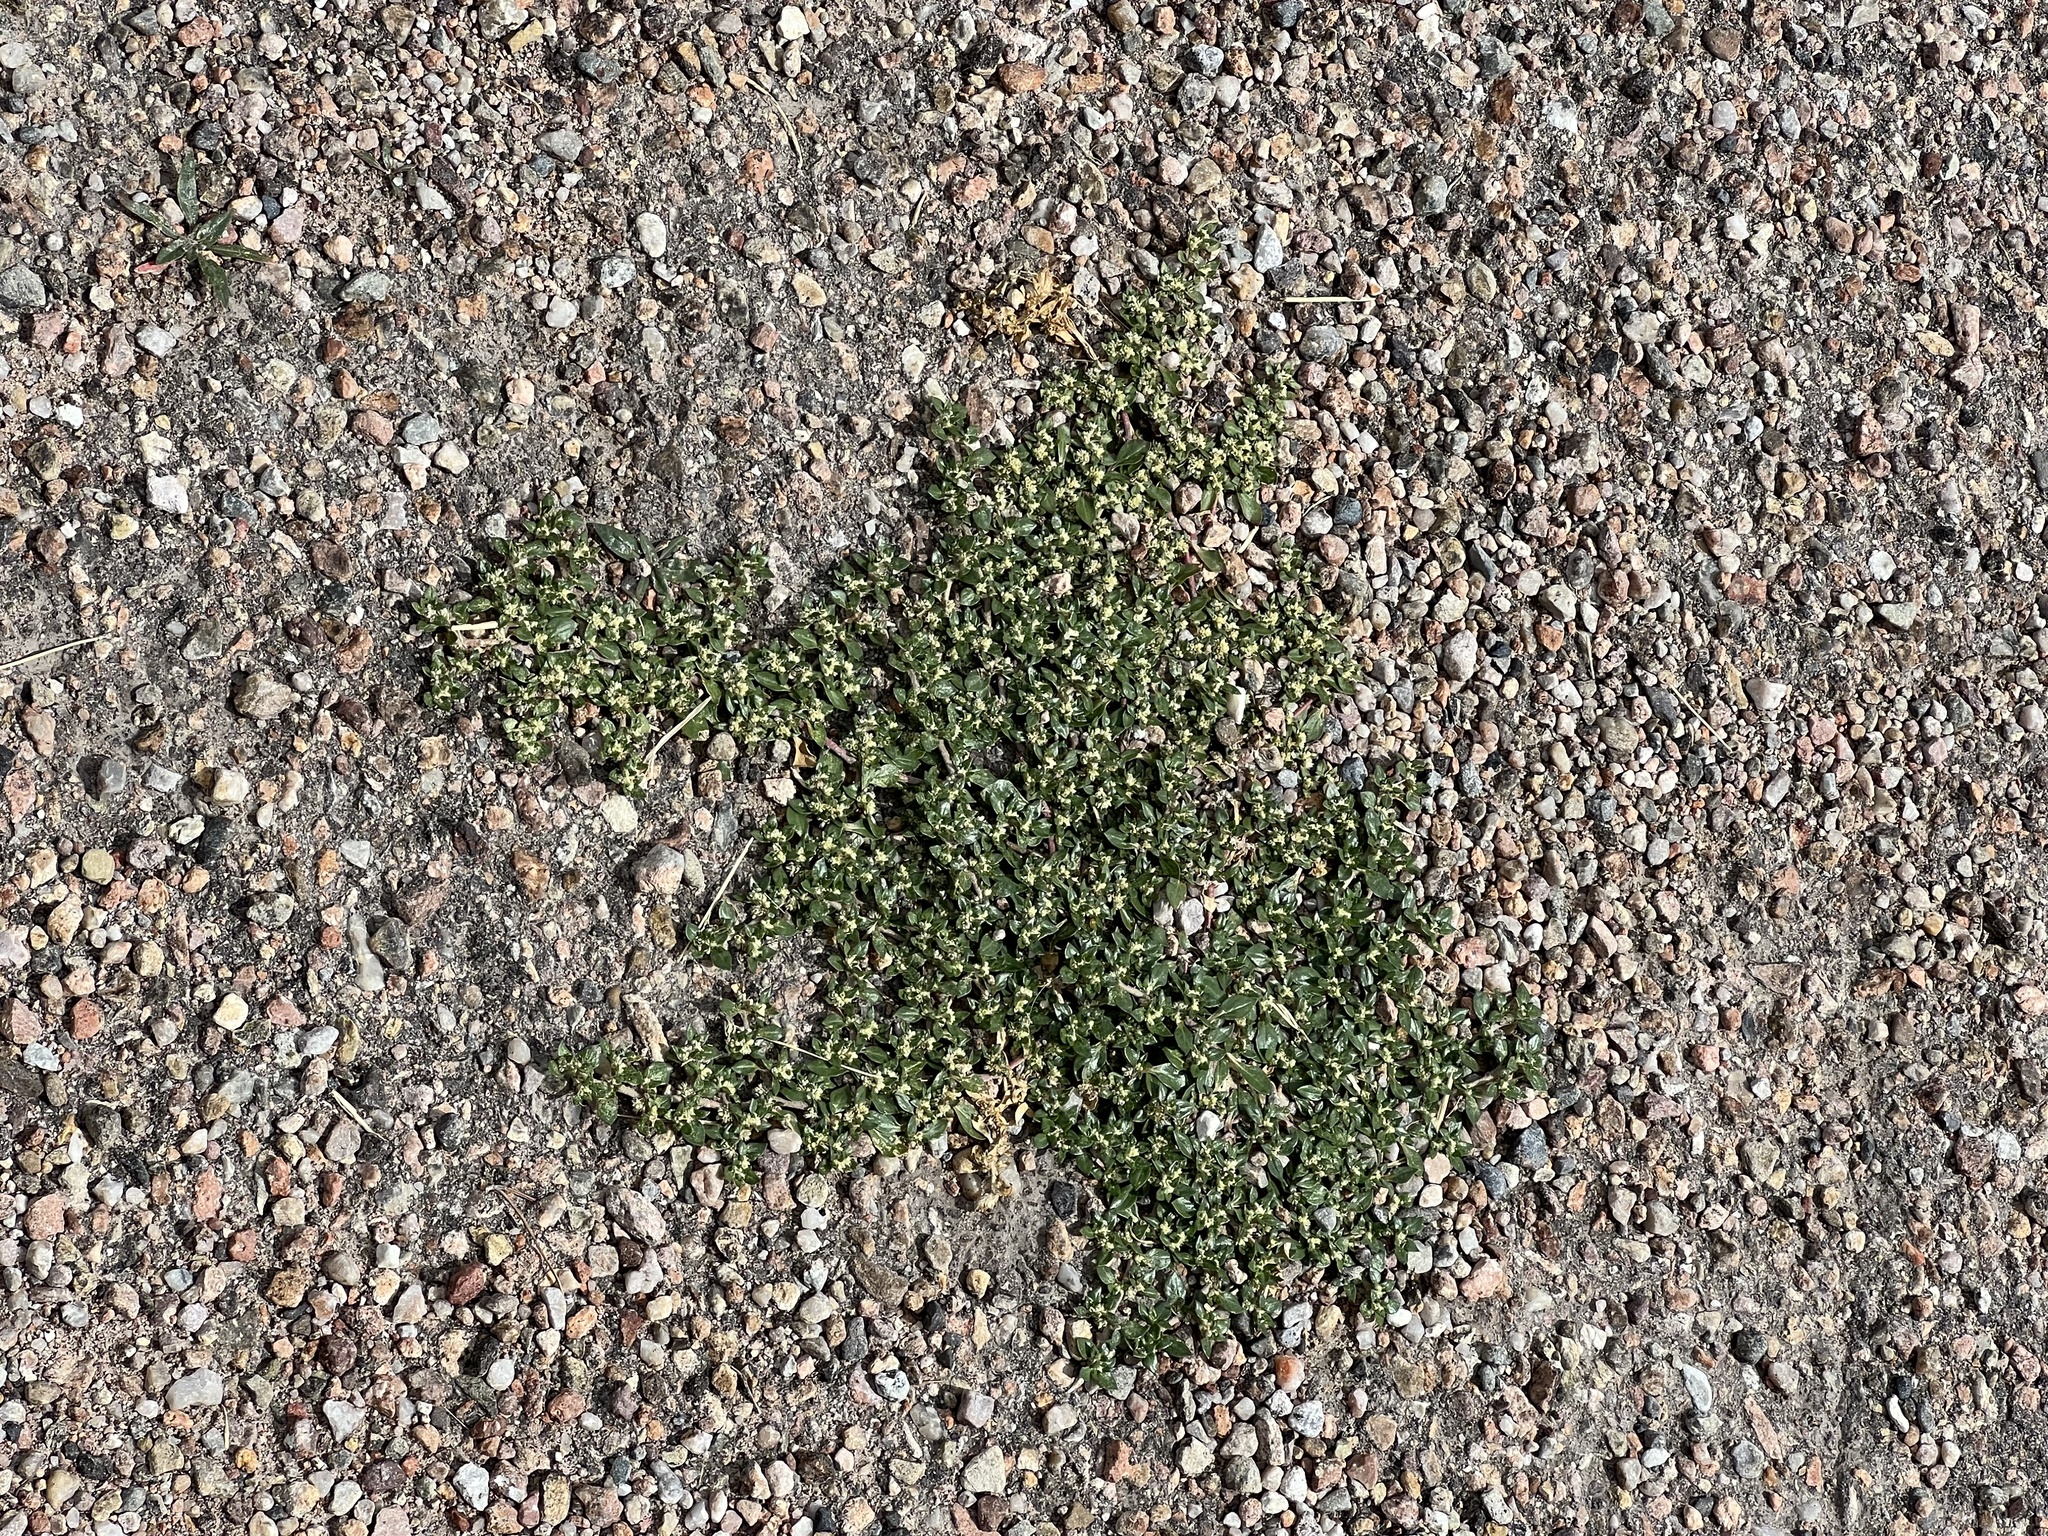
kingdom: Plantae
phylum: Tracheophyta
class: Magnoliopsida
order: Caryophyllales
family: Amaranthaceae
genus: Guilleminea
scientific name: Guilleminea densa
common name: Small matweed
